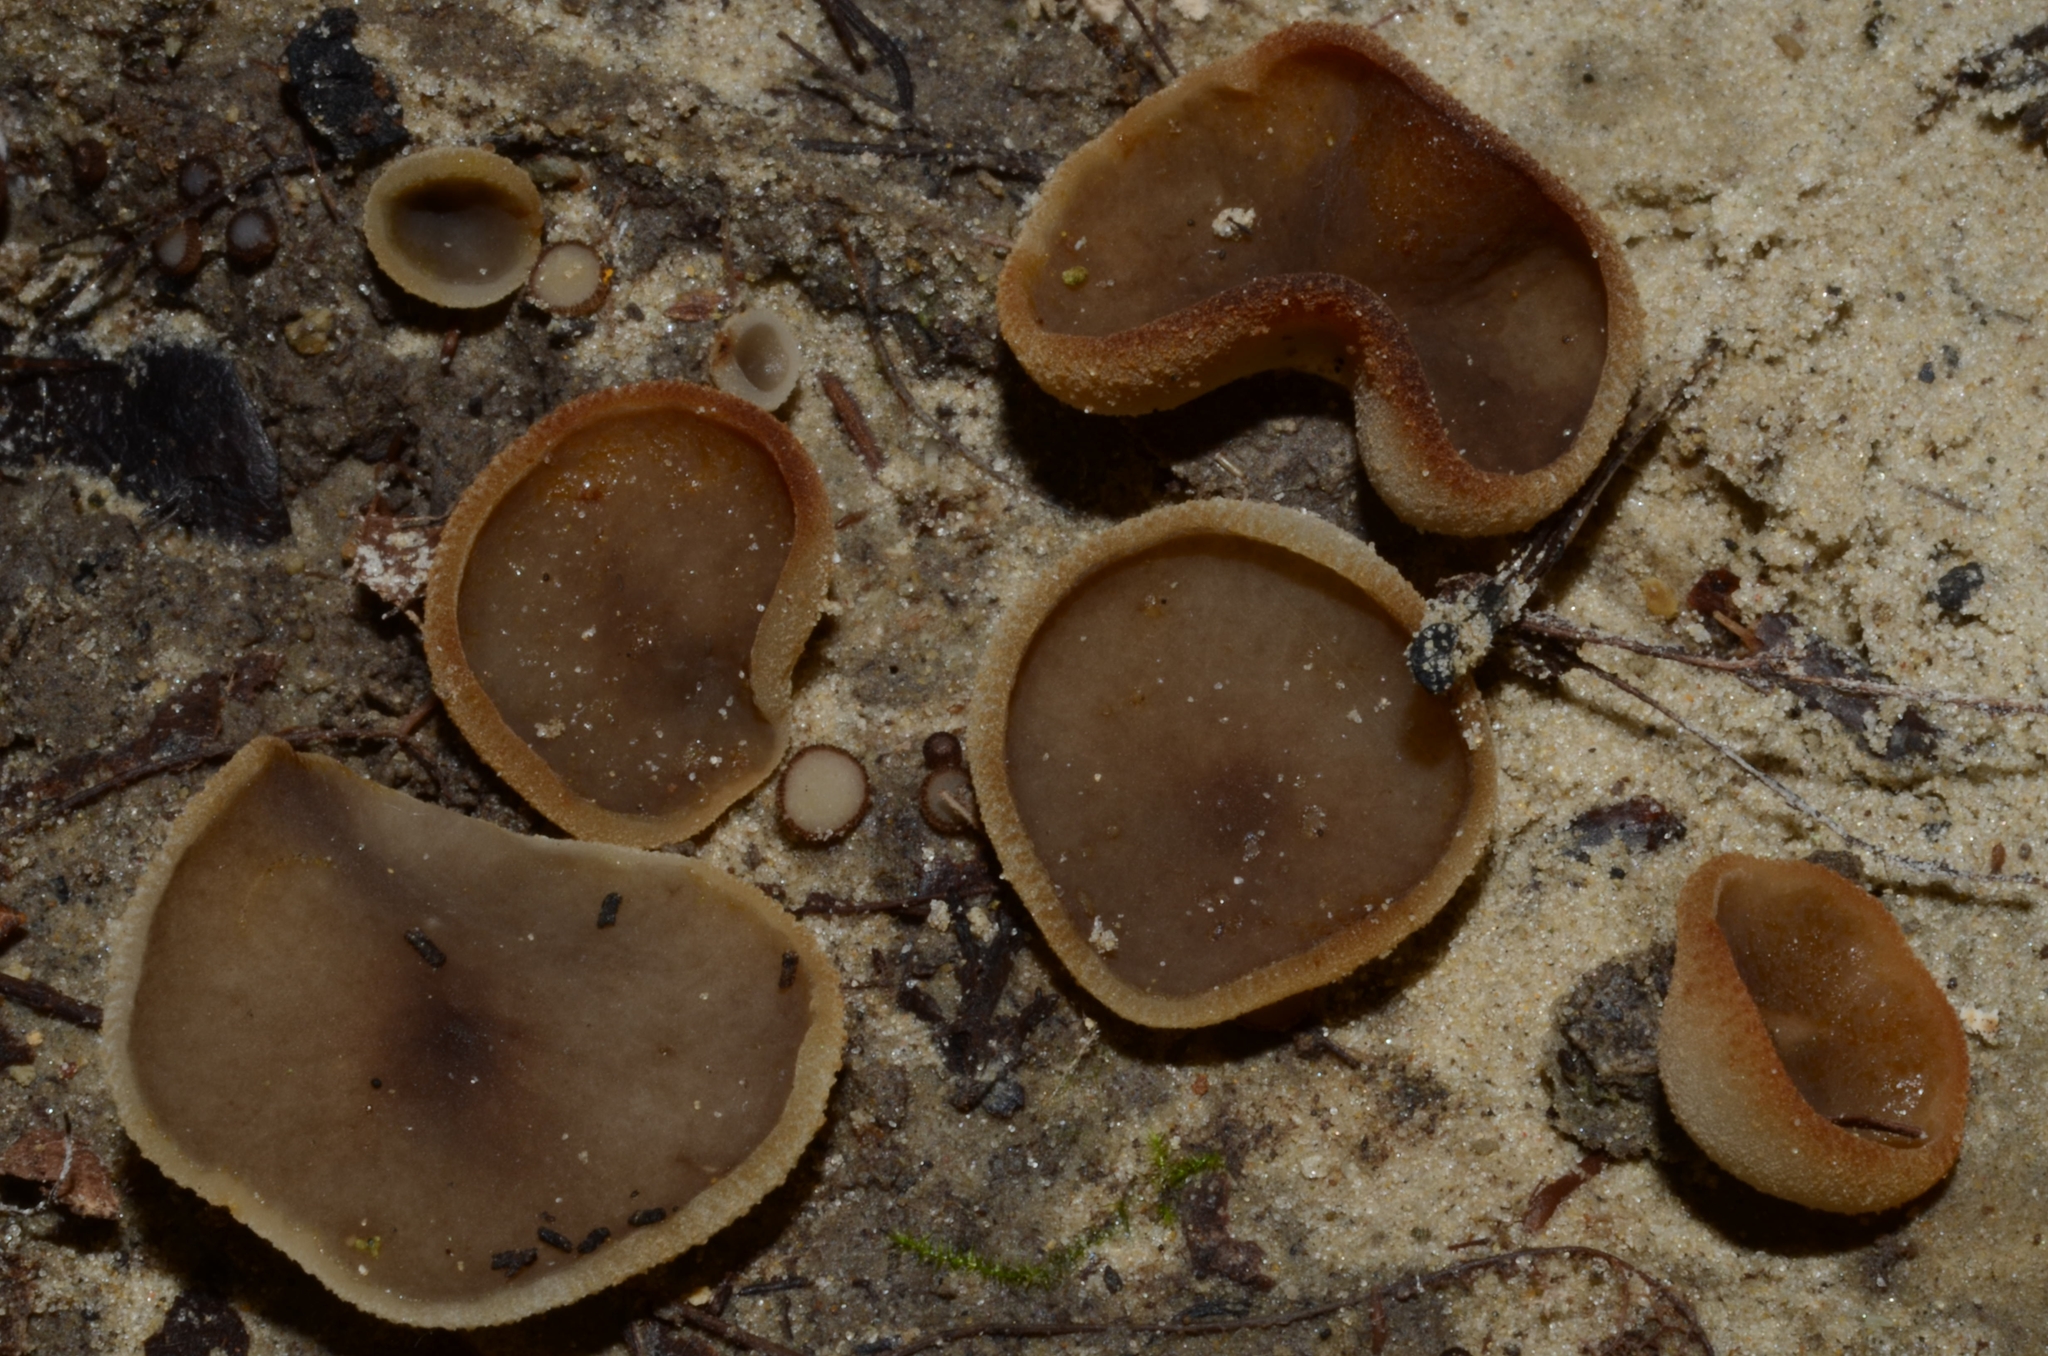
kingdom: Fungi
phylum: Ascomycota
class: Pezizomycetes
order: Pezizales
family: Pezizaceae
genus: Paragalactinia
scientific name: Paragalactinia succosa
